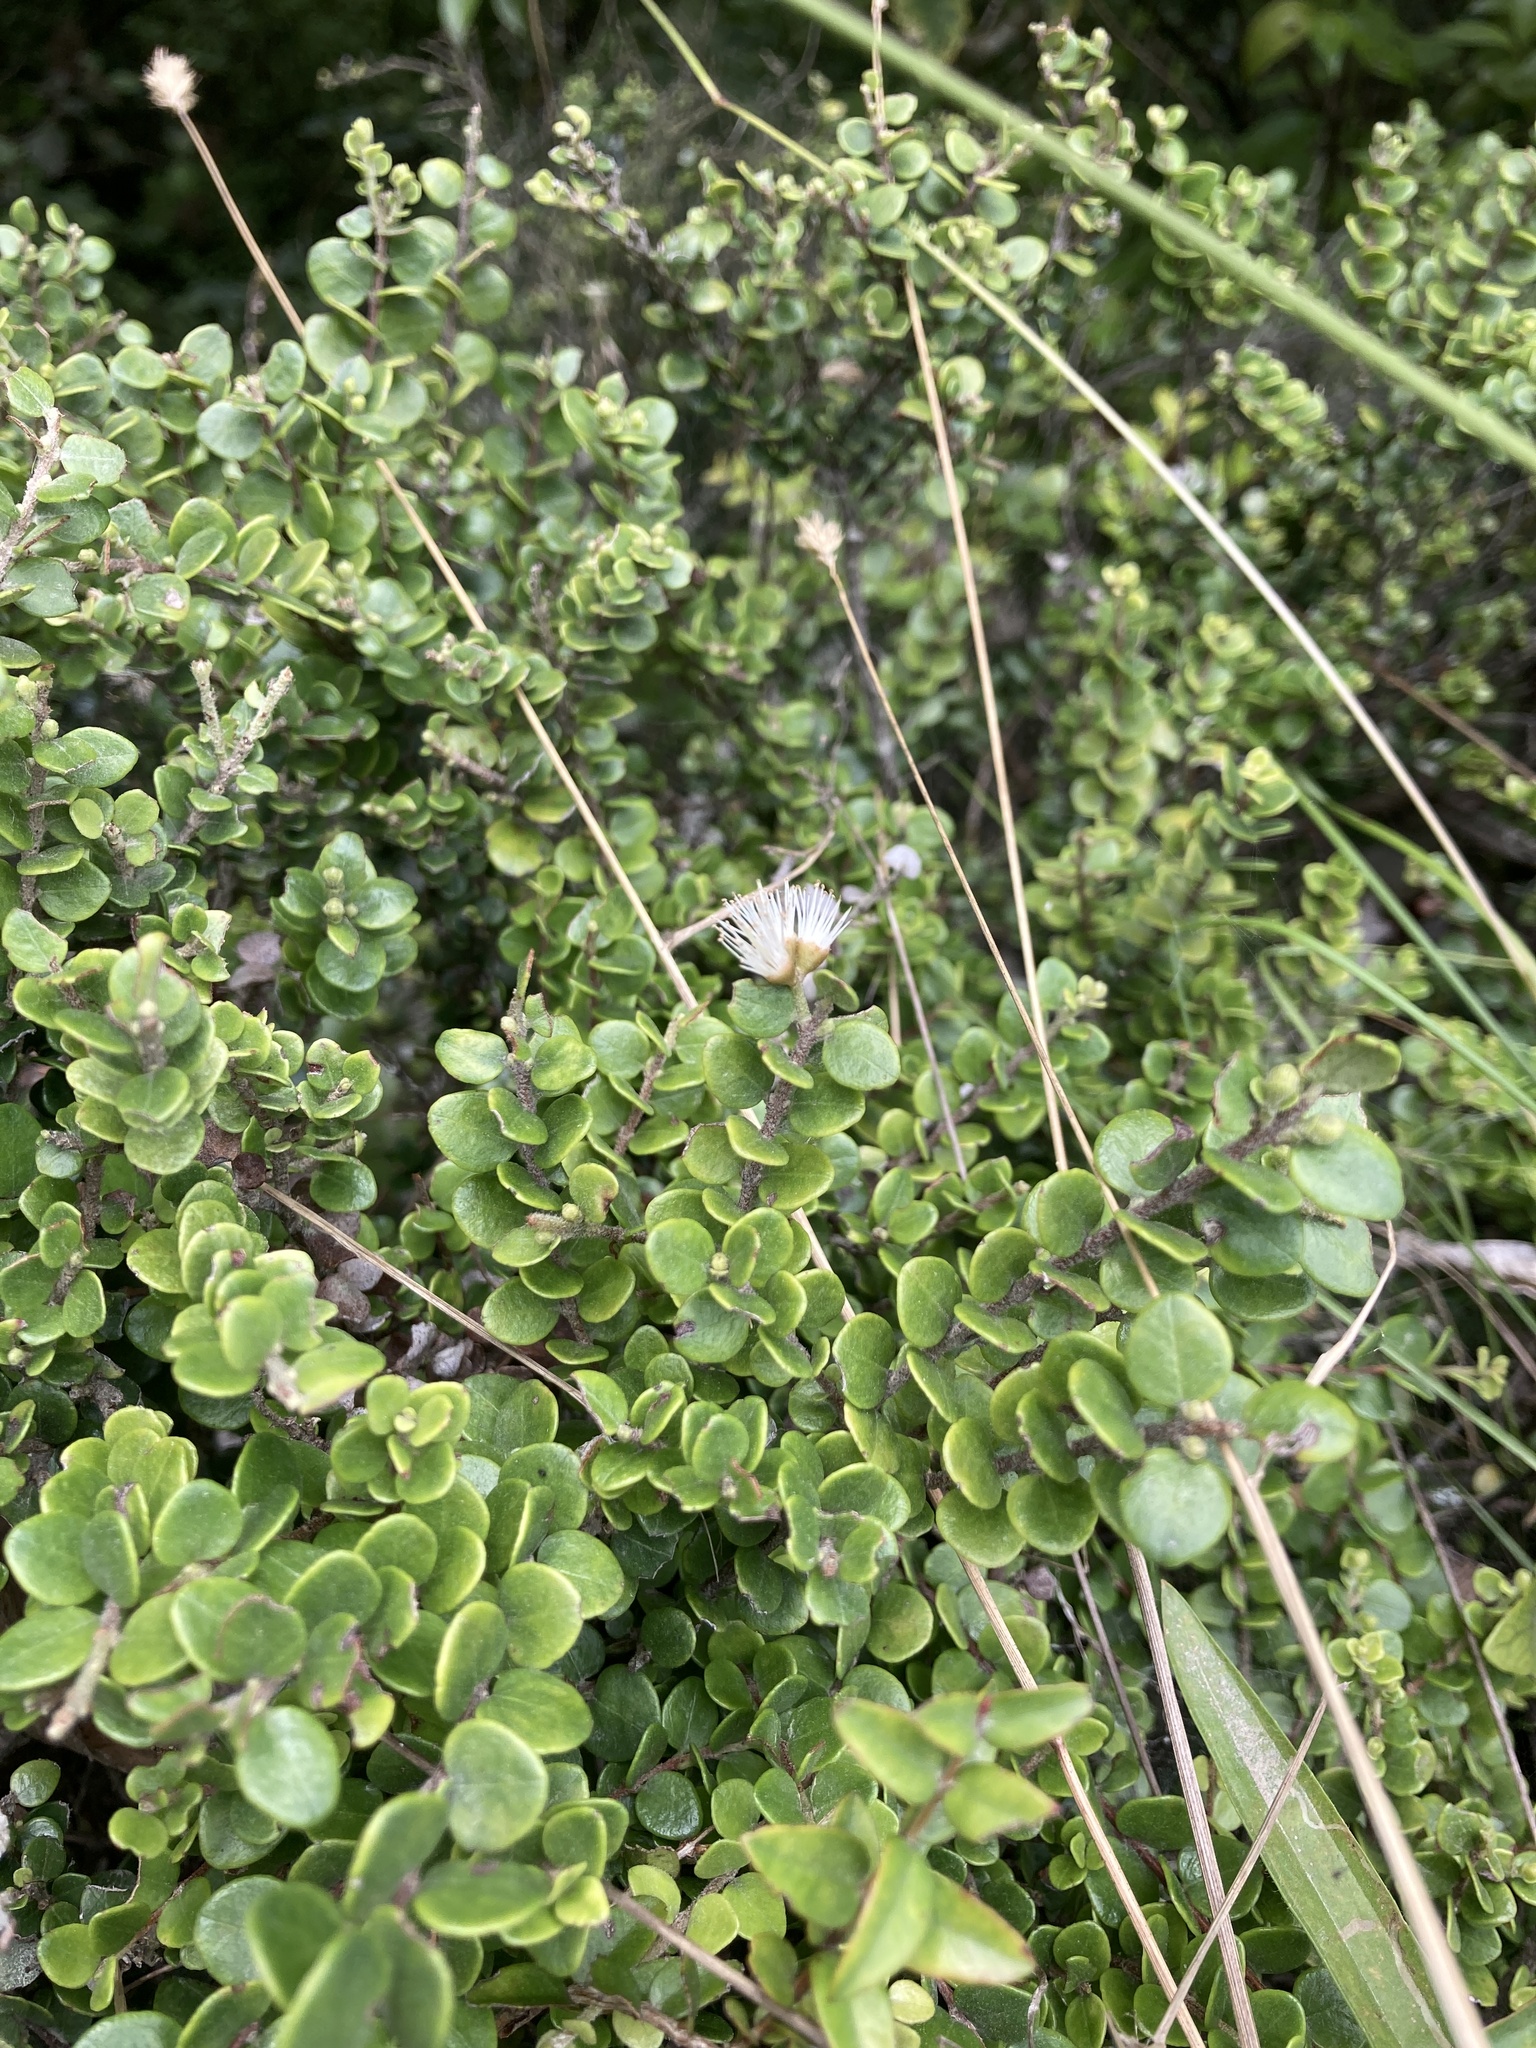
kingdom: Plantae
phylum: Tracheophyta
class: Magnoliopsida
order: Myrtales
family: Myrtaceae
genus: Metrosideros
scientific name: Metrosideros perforata
